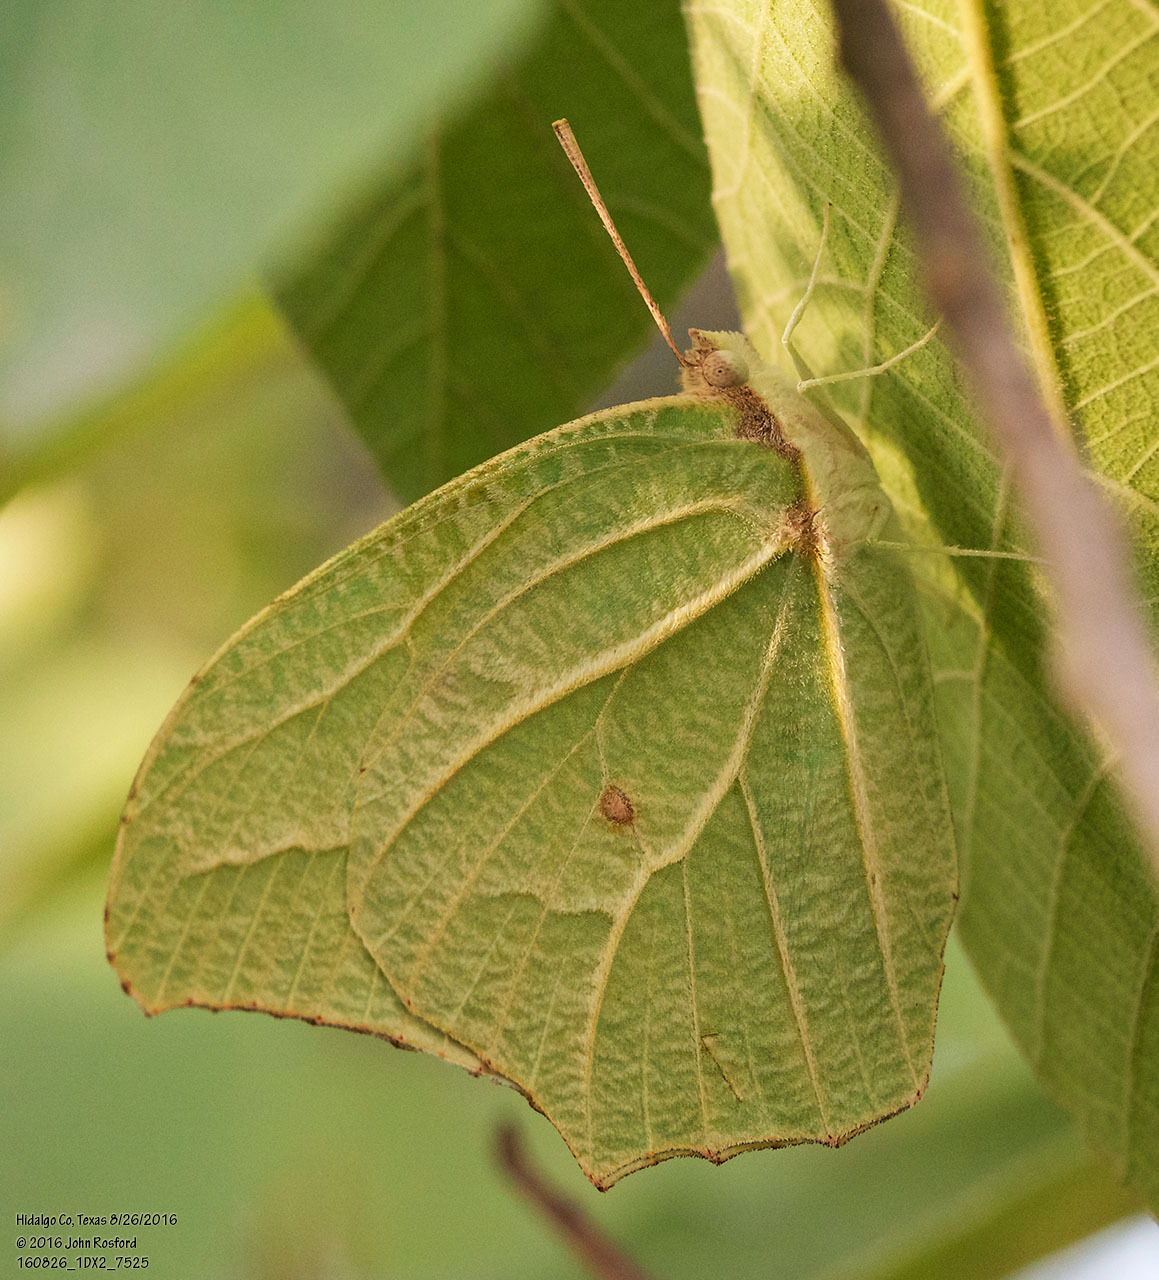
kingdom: Animalia
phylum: Arthropoda
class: Insecta
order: Lepidoptera
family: Pieridae
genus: Anteos
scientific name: Anteos clorinde
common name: White angled sulphur
